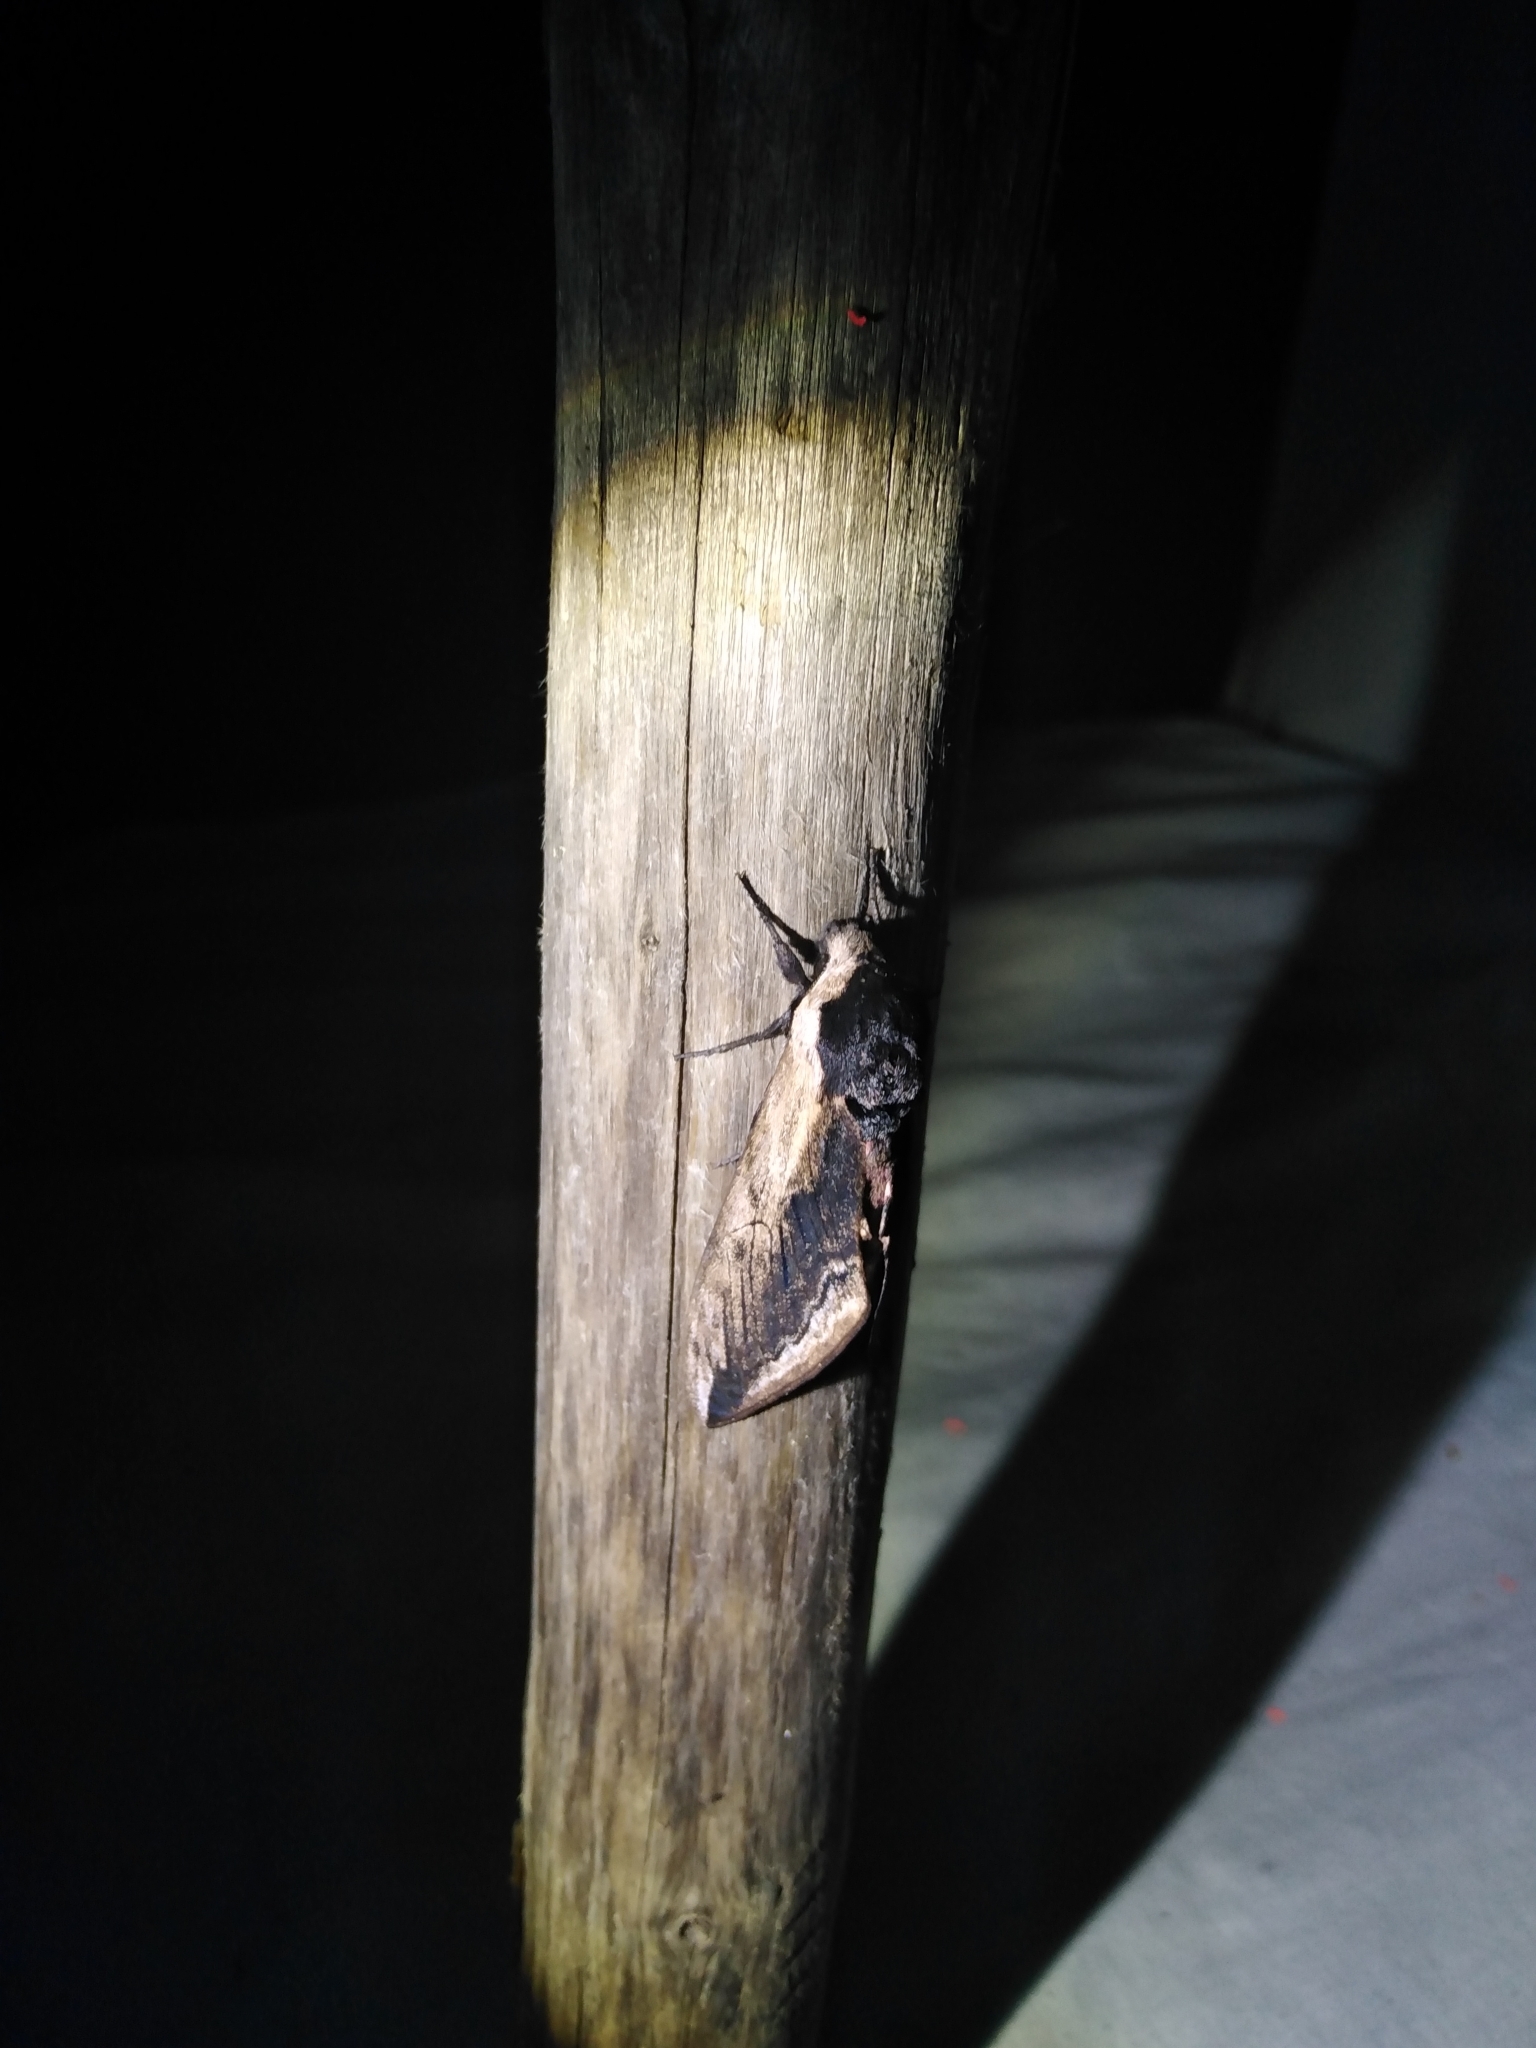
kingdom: Animalia
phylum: Arthropoda
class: Insecta
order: Lepidoptera
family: Sphingidae
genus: Sphinx
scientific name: Sphinx ligustri
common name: Privet hawk-moth
